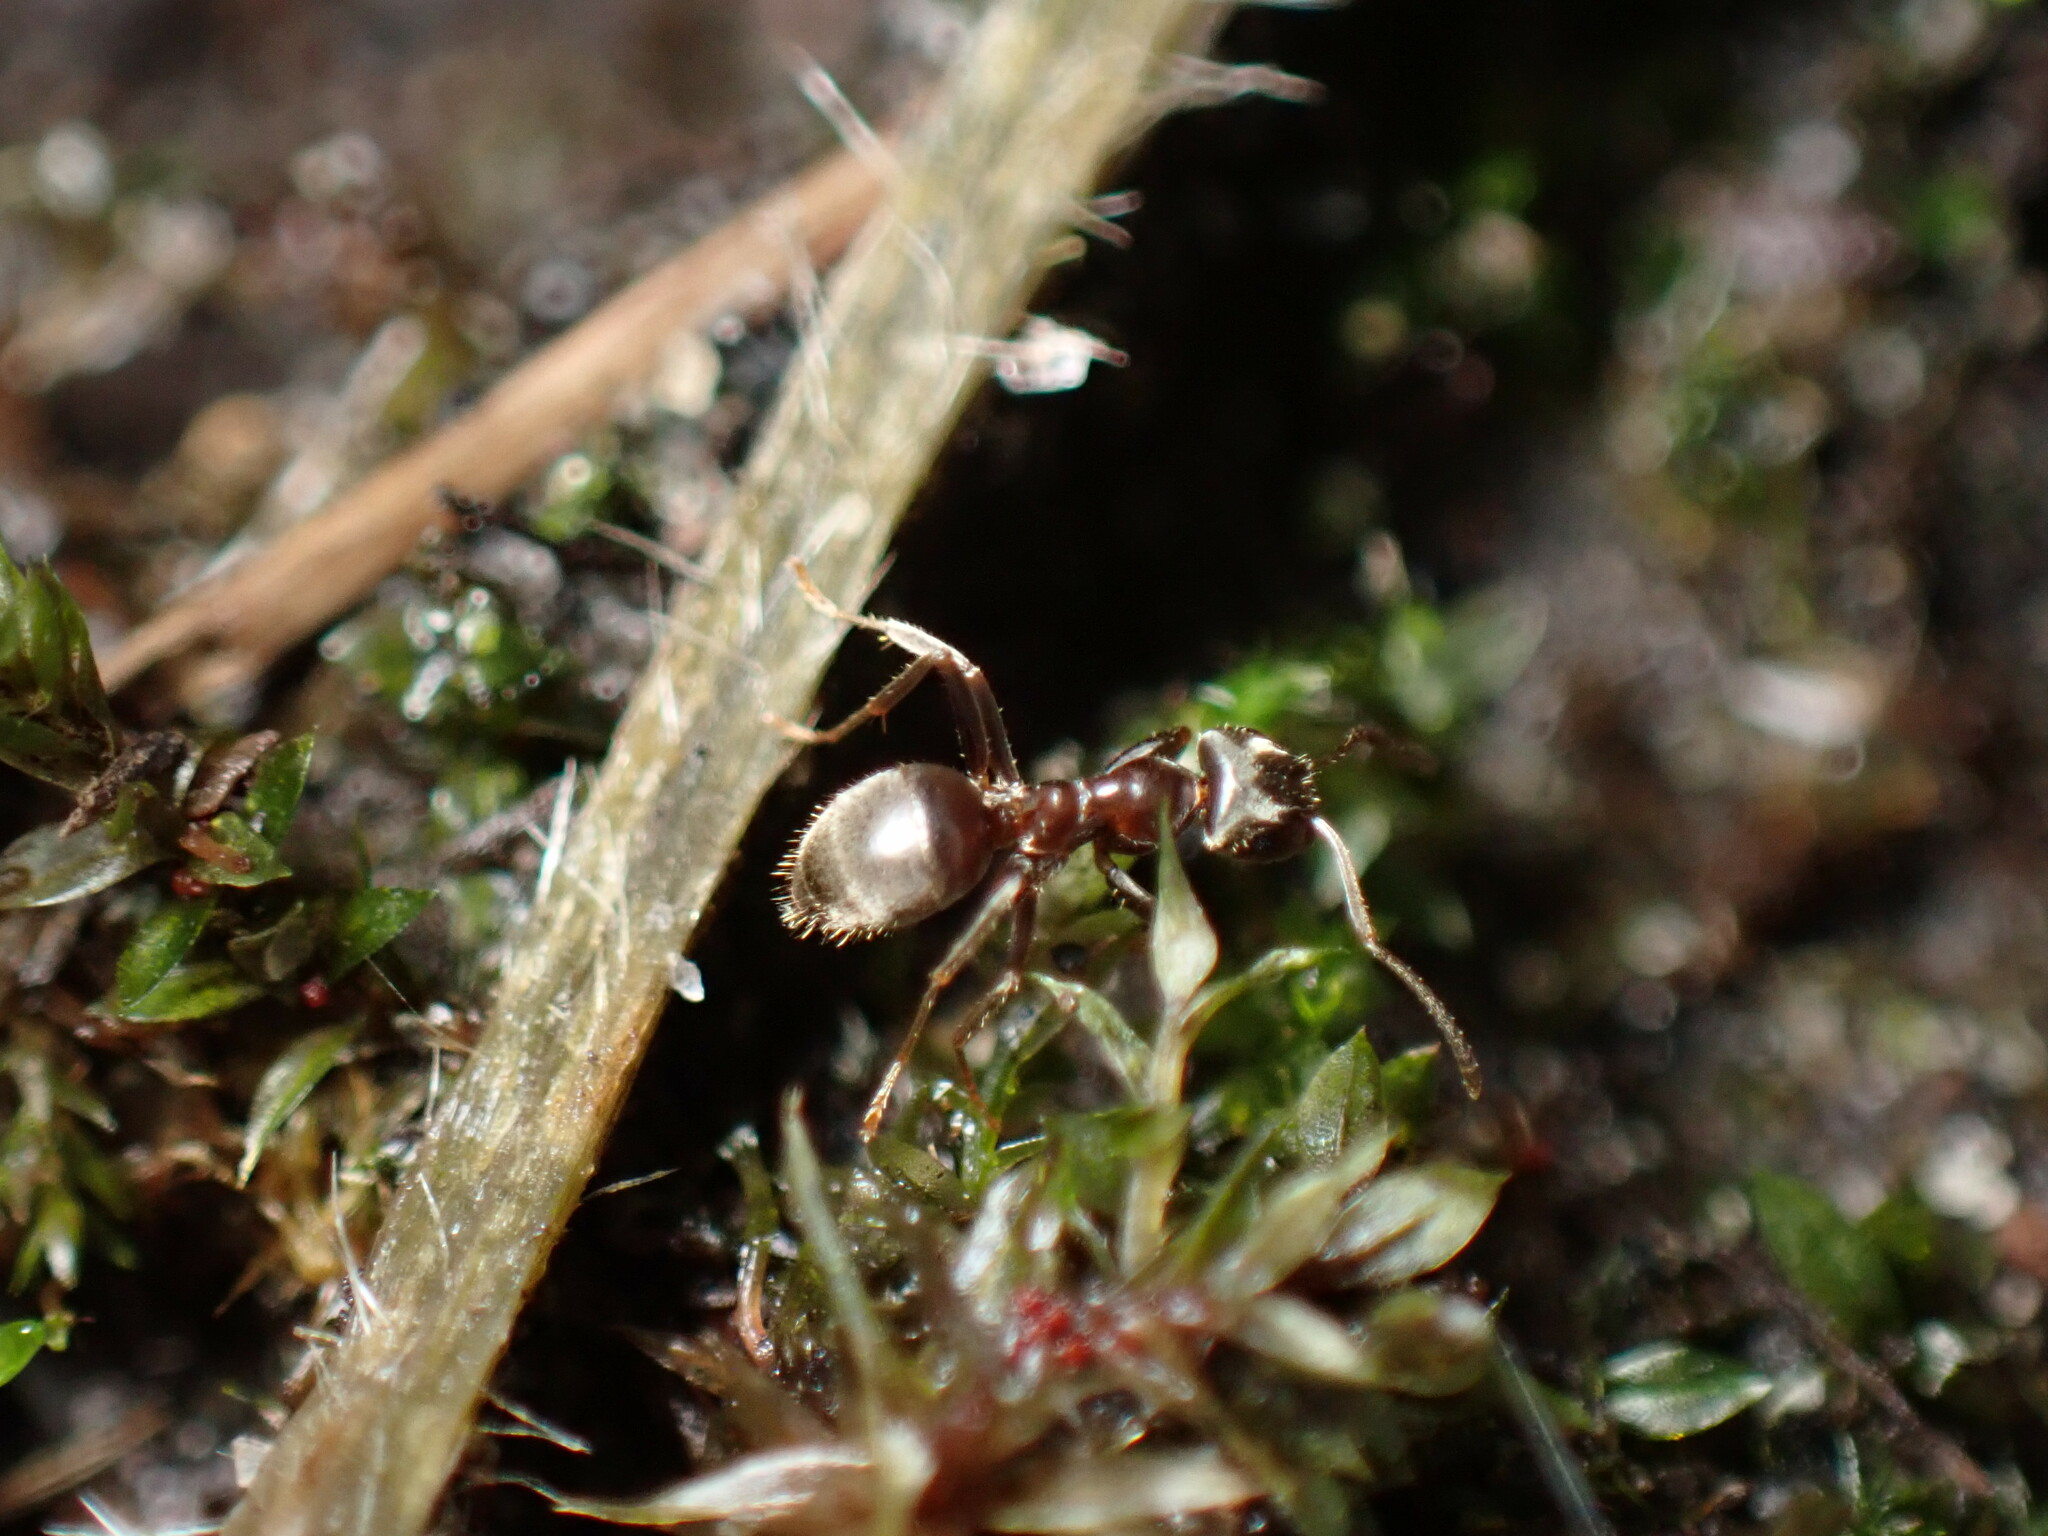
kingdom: Animalia
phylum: Arthropoda
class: Insecta
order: Hymenoptera
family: Formicidae
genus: Lasius
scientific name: Lasius niger
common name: Small black ant
